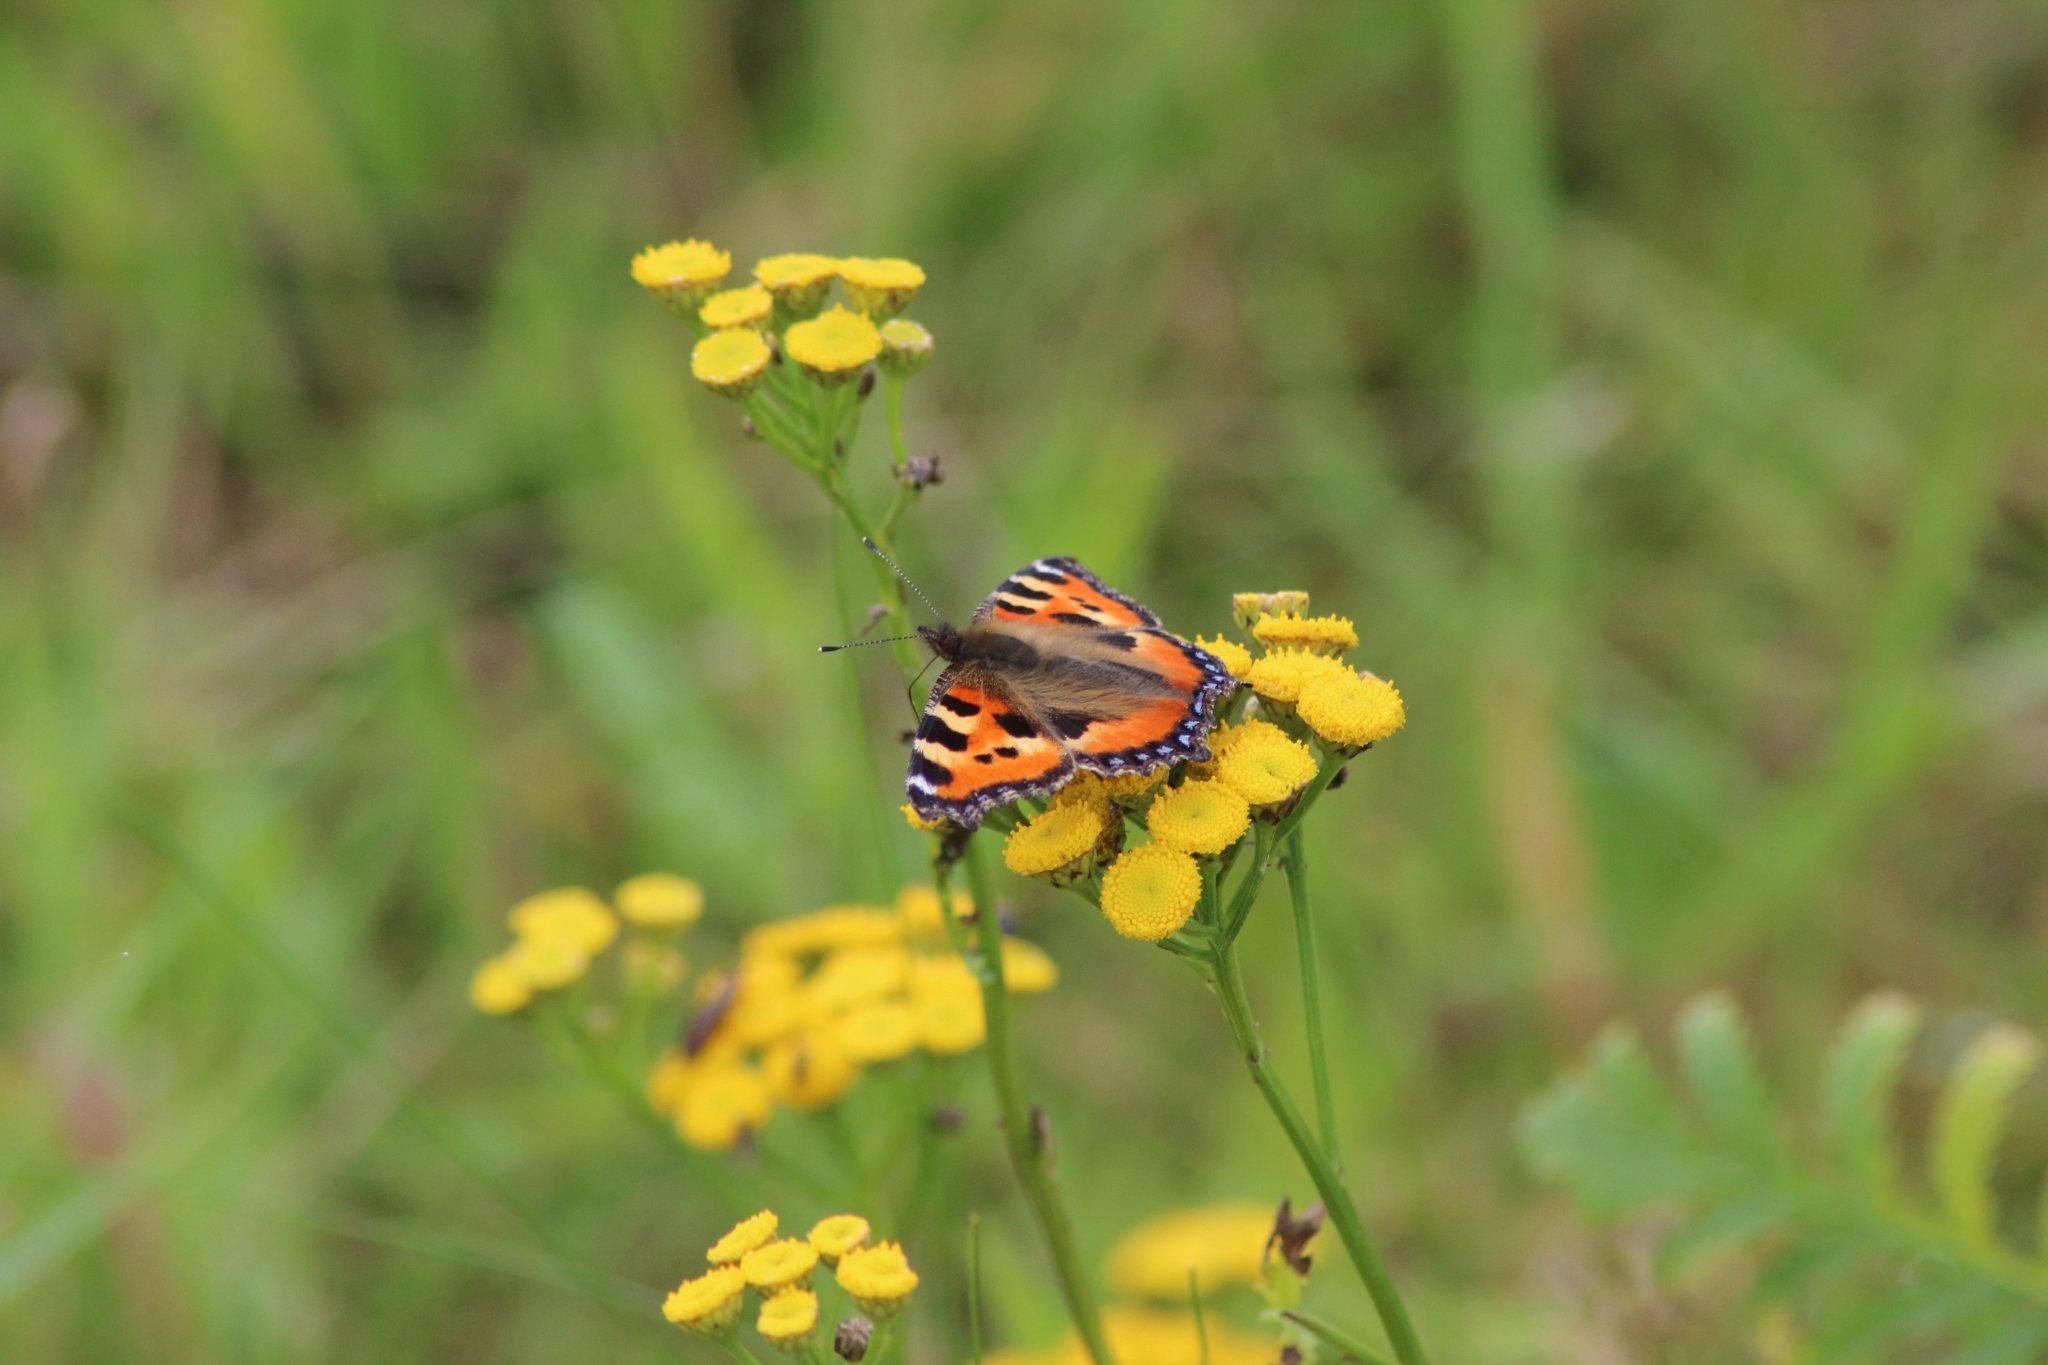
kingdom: Animalia
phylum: Arthropoda
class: Insecta
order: Lepidoptera
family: Nymphalidae
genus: Aglais
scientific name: Aglais urticae
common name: Small tortoiseshell
